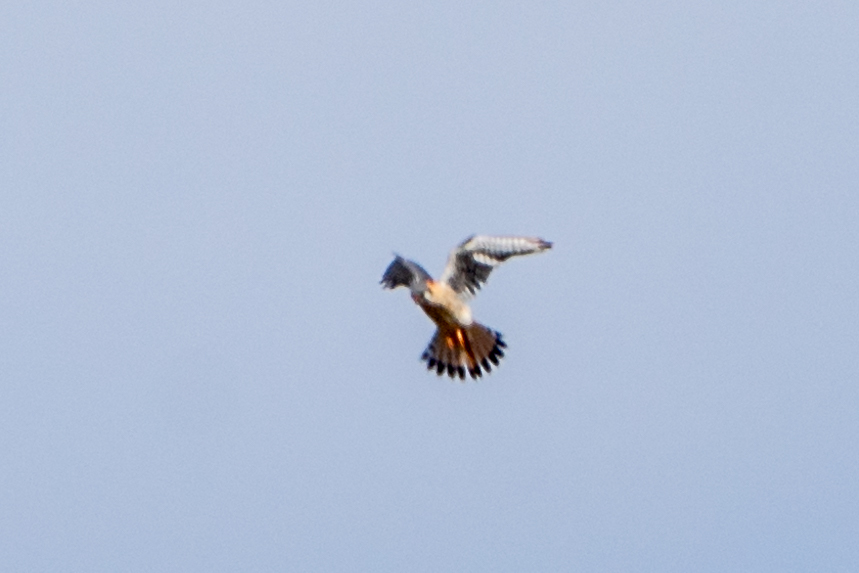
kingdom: Animalia
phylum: Chordata
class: Aves
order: Falconiformes
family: Falconidae
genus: Falco
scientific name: Falco sparverius
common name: American kestrel
